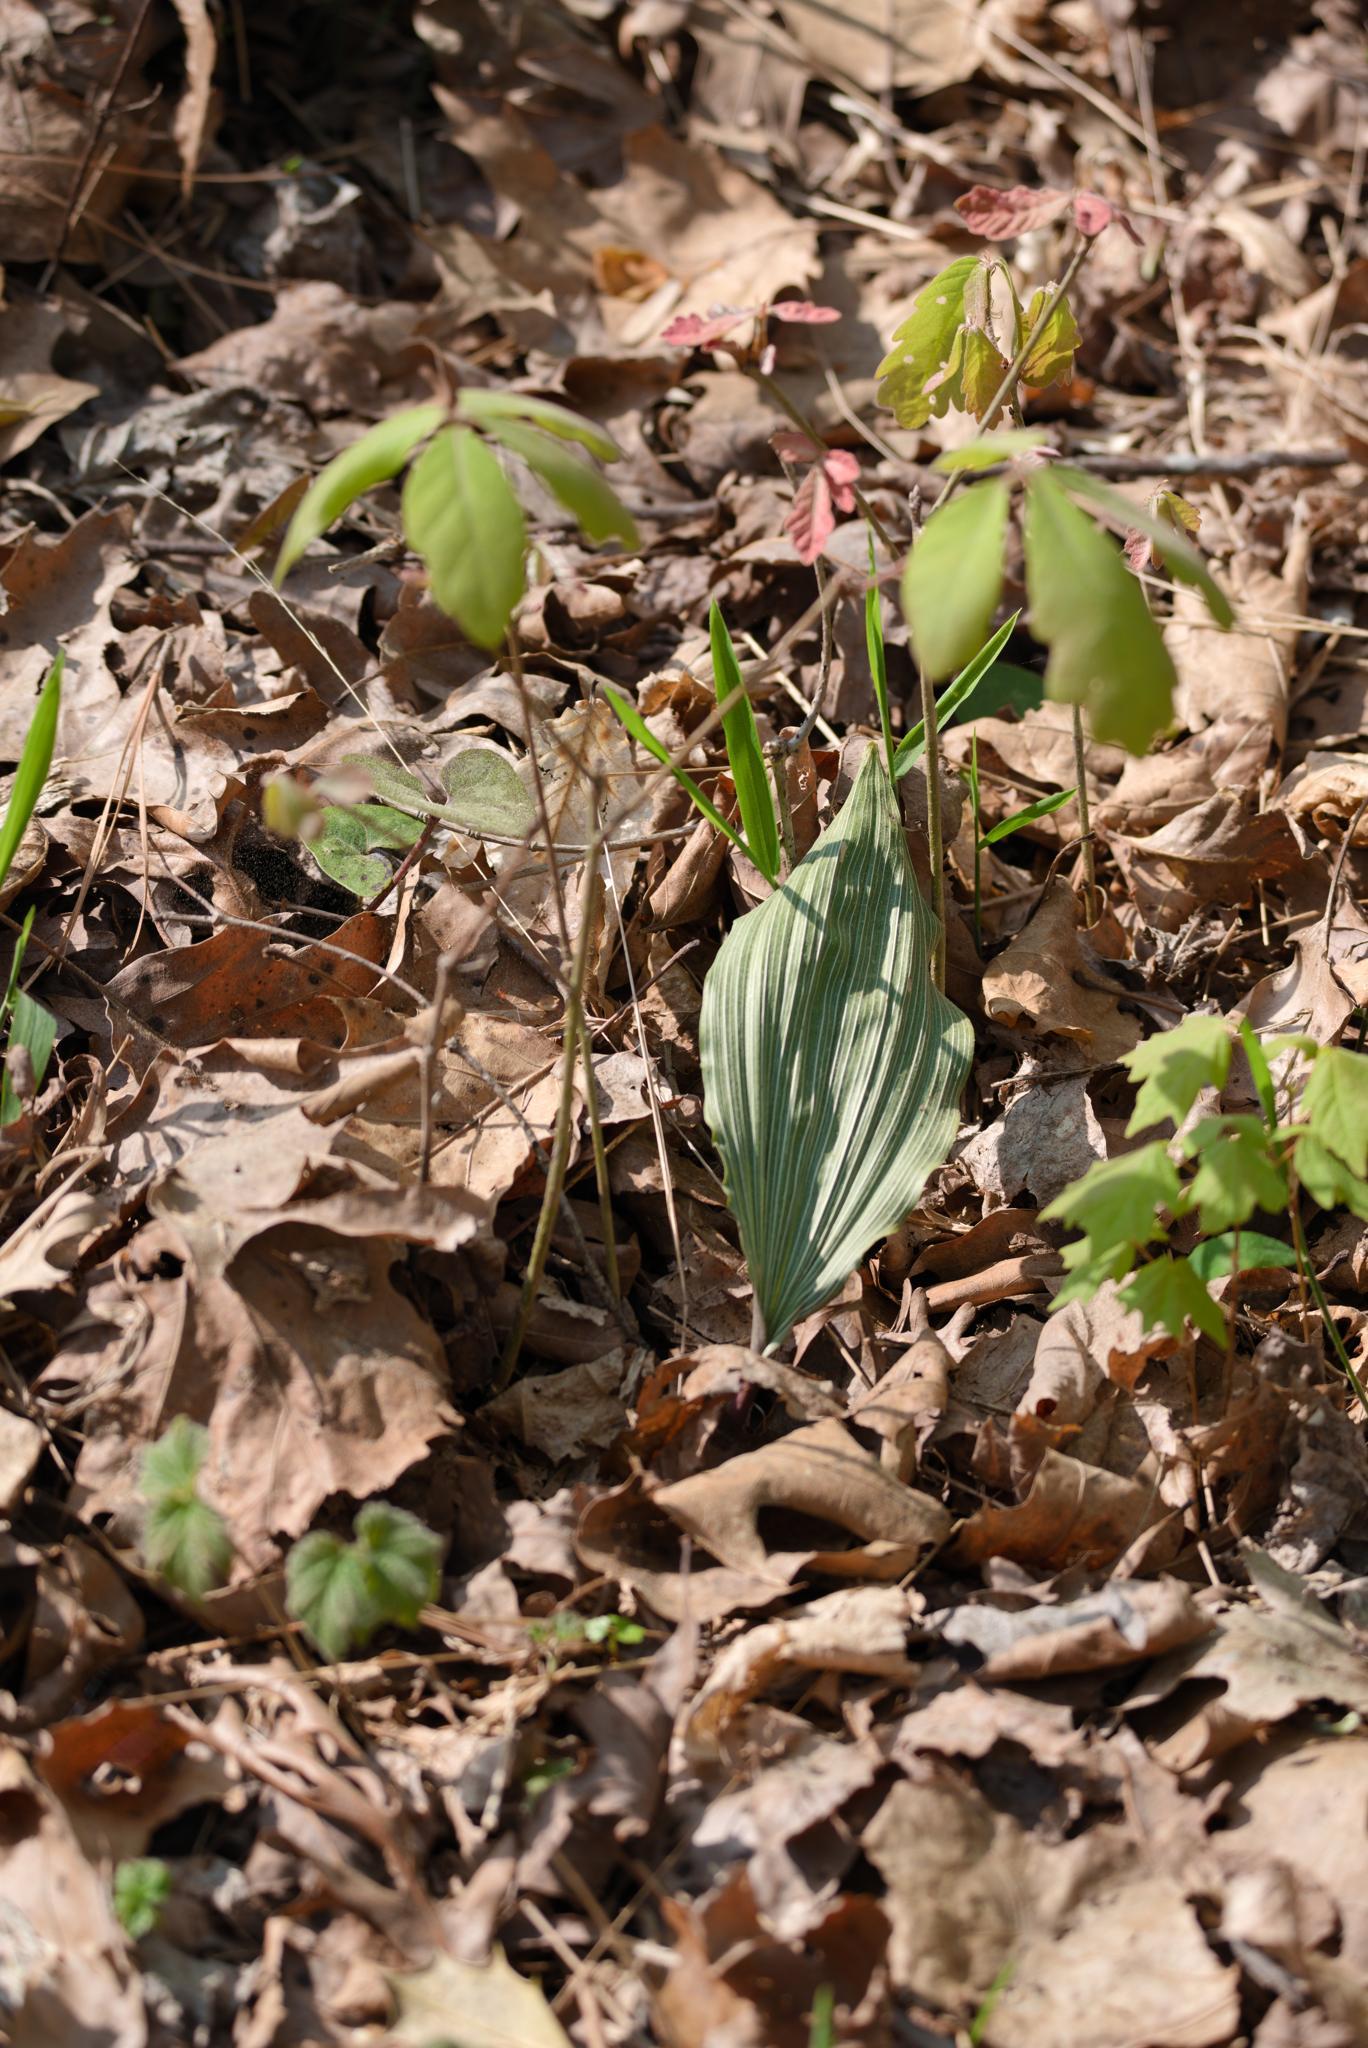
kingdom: Plantae
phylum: Tracheophyta
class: Liliopsida
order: Asparagales
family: Orchidaceae
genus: Aplectrum
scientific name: Aplectrum hyemale
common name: Adam-and-eve
